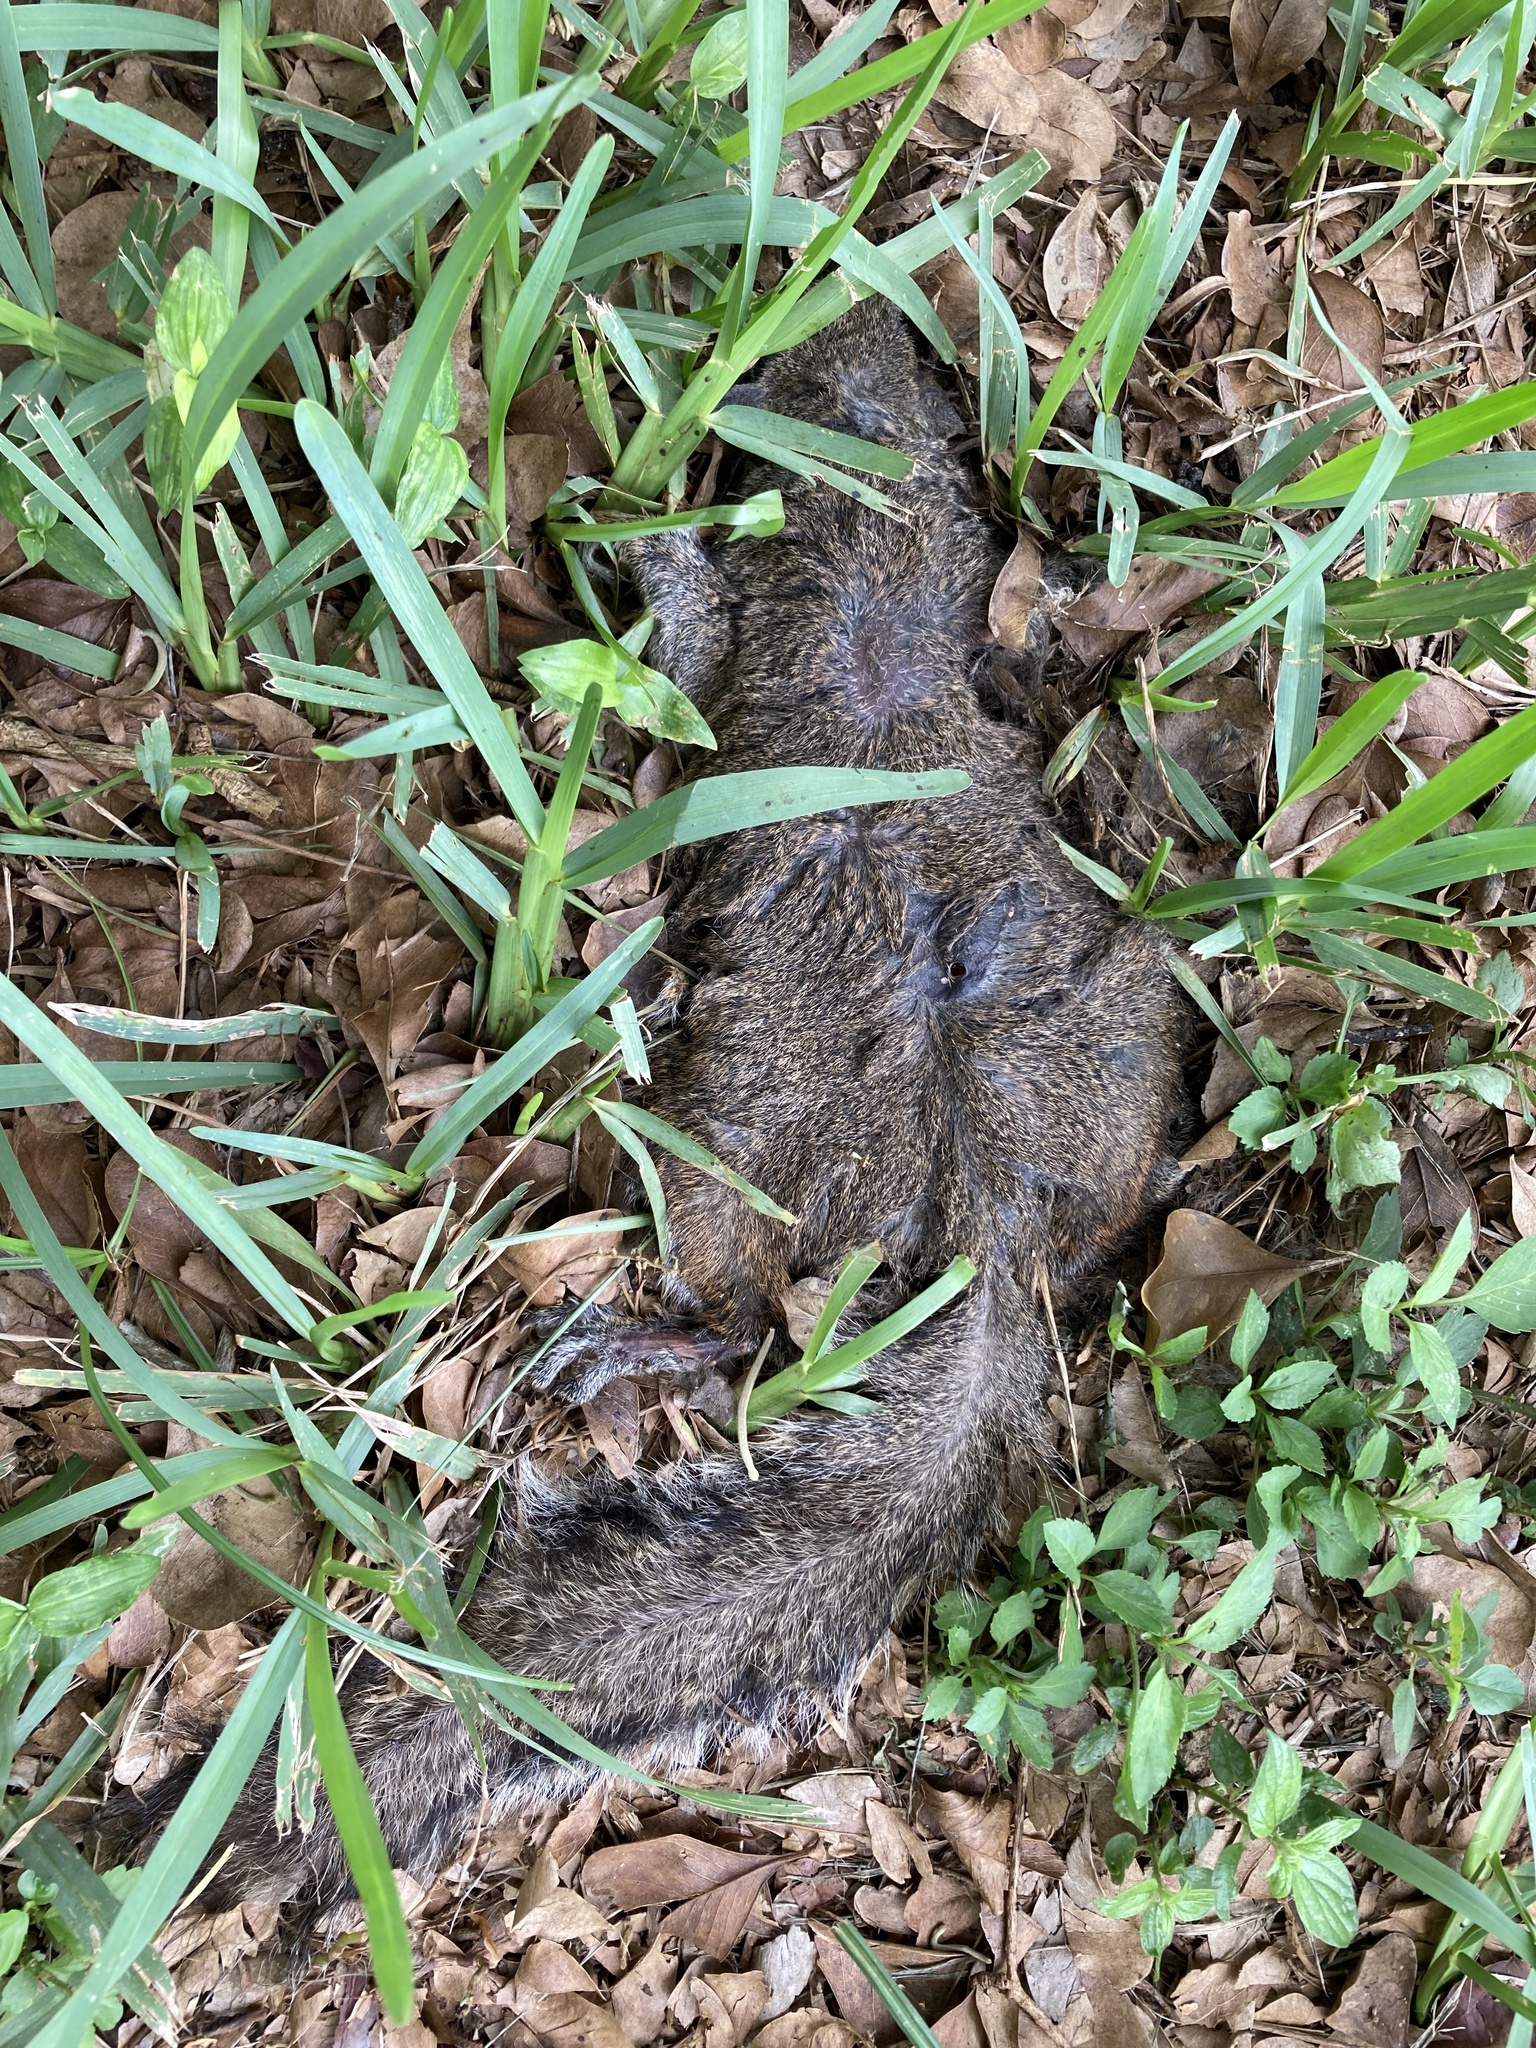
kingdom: Animalia
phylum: Chordata
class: Mammalia
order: Rodentia
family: Sciuridae
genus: Sciurus
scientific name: Sciurus carolinensis
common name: Eastern gray squirrel
